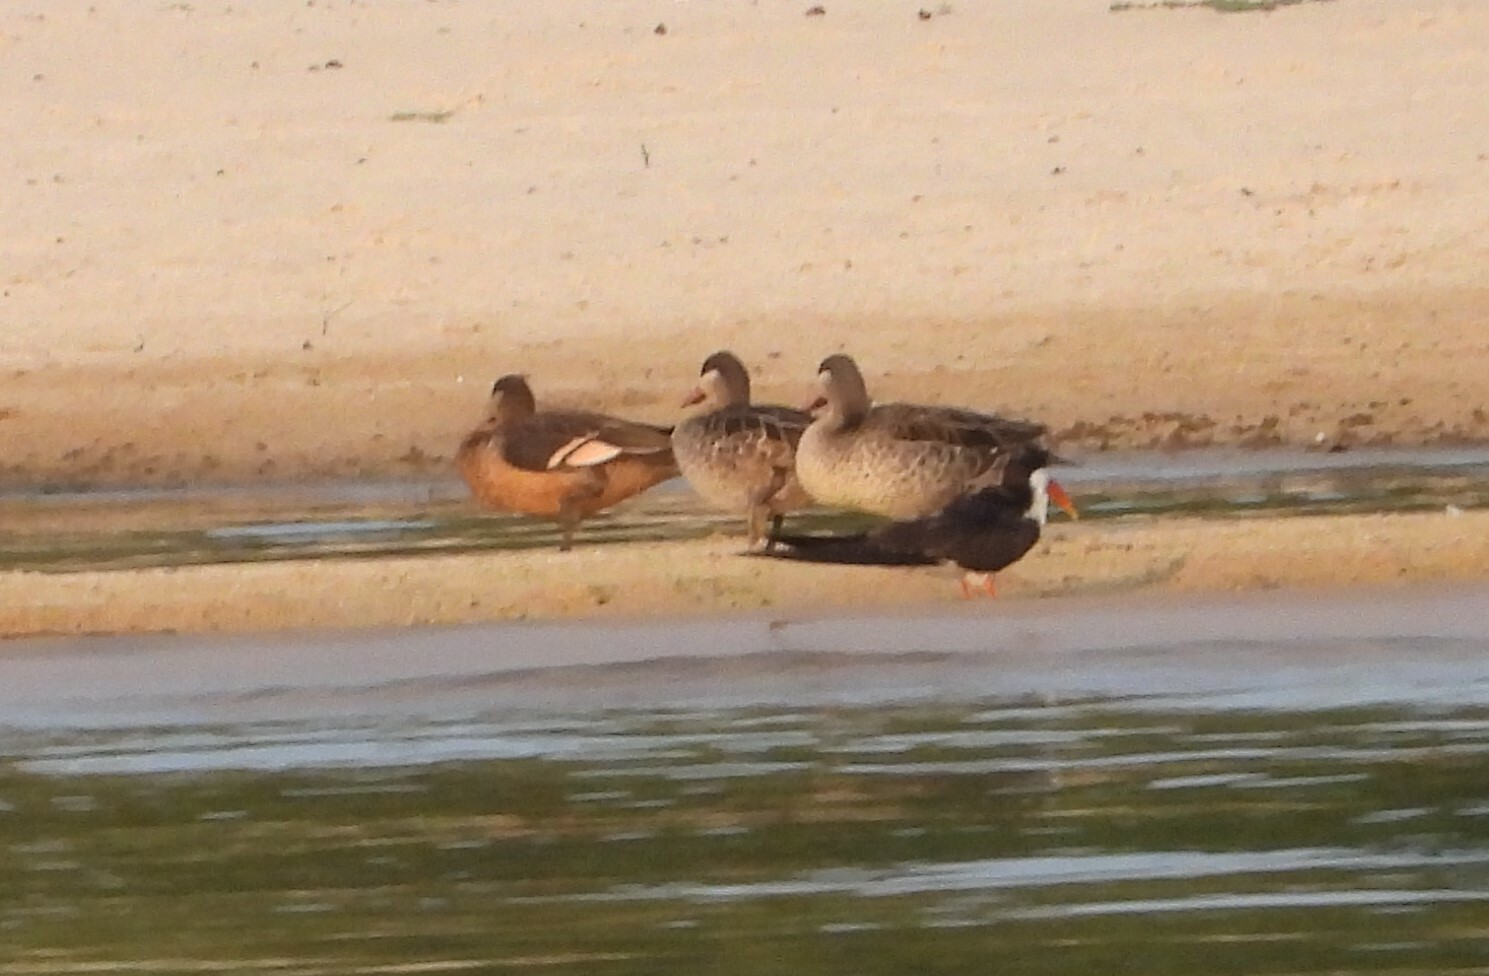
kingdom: Animalia
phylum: Chordata
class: Aves
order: Charadriiformes
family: Laridae
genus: Rynchops
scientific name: Rynchops flavirostris
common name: African skimmer
